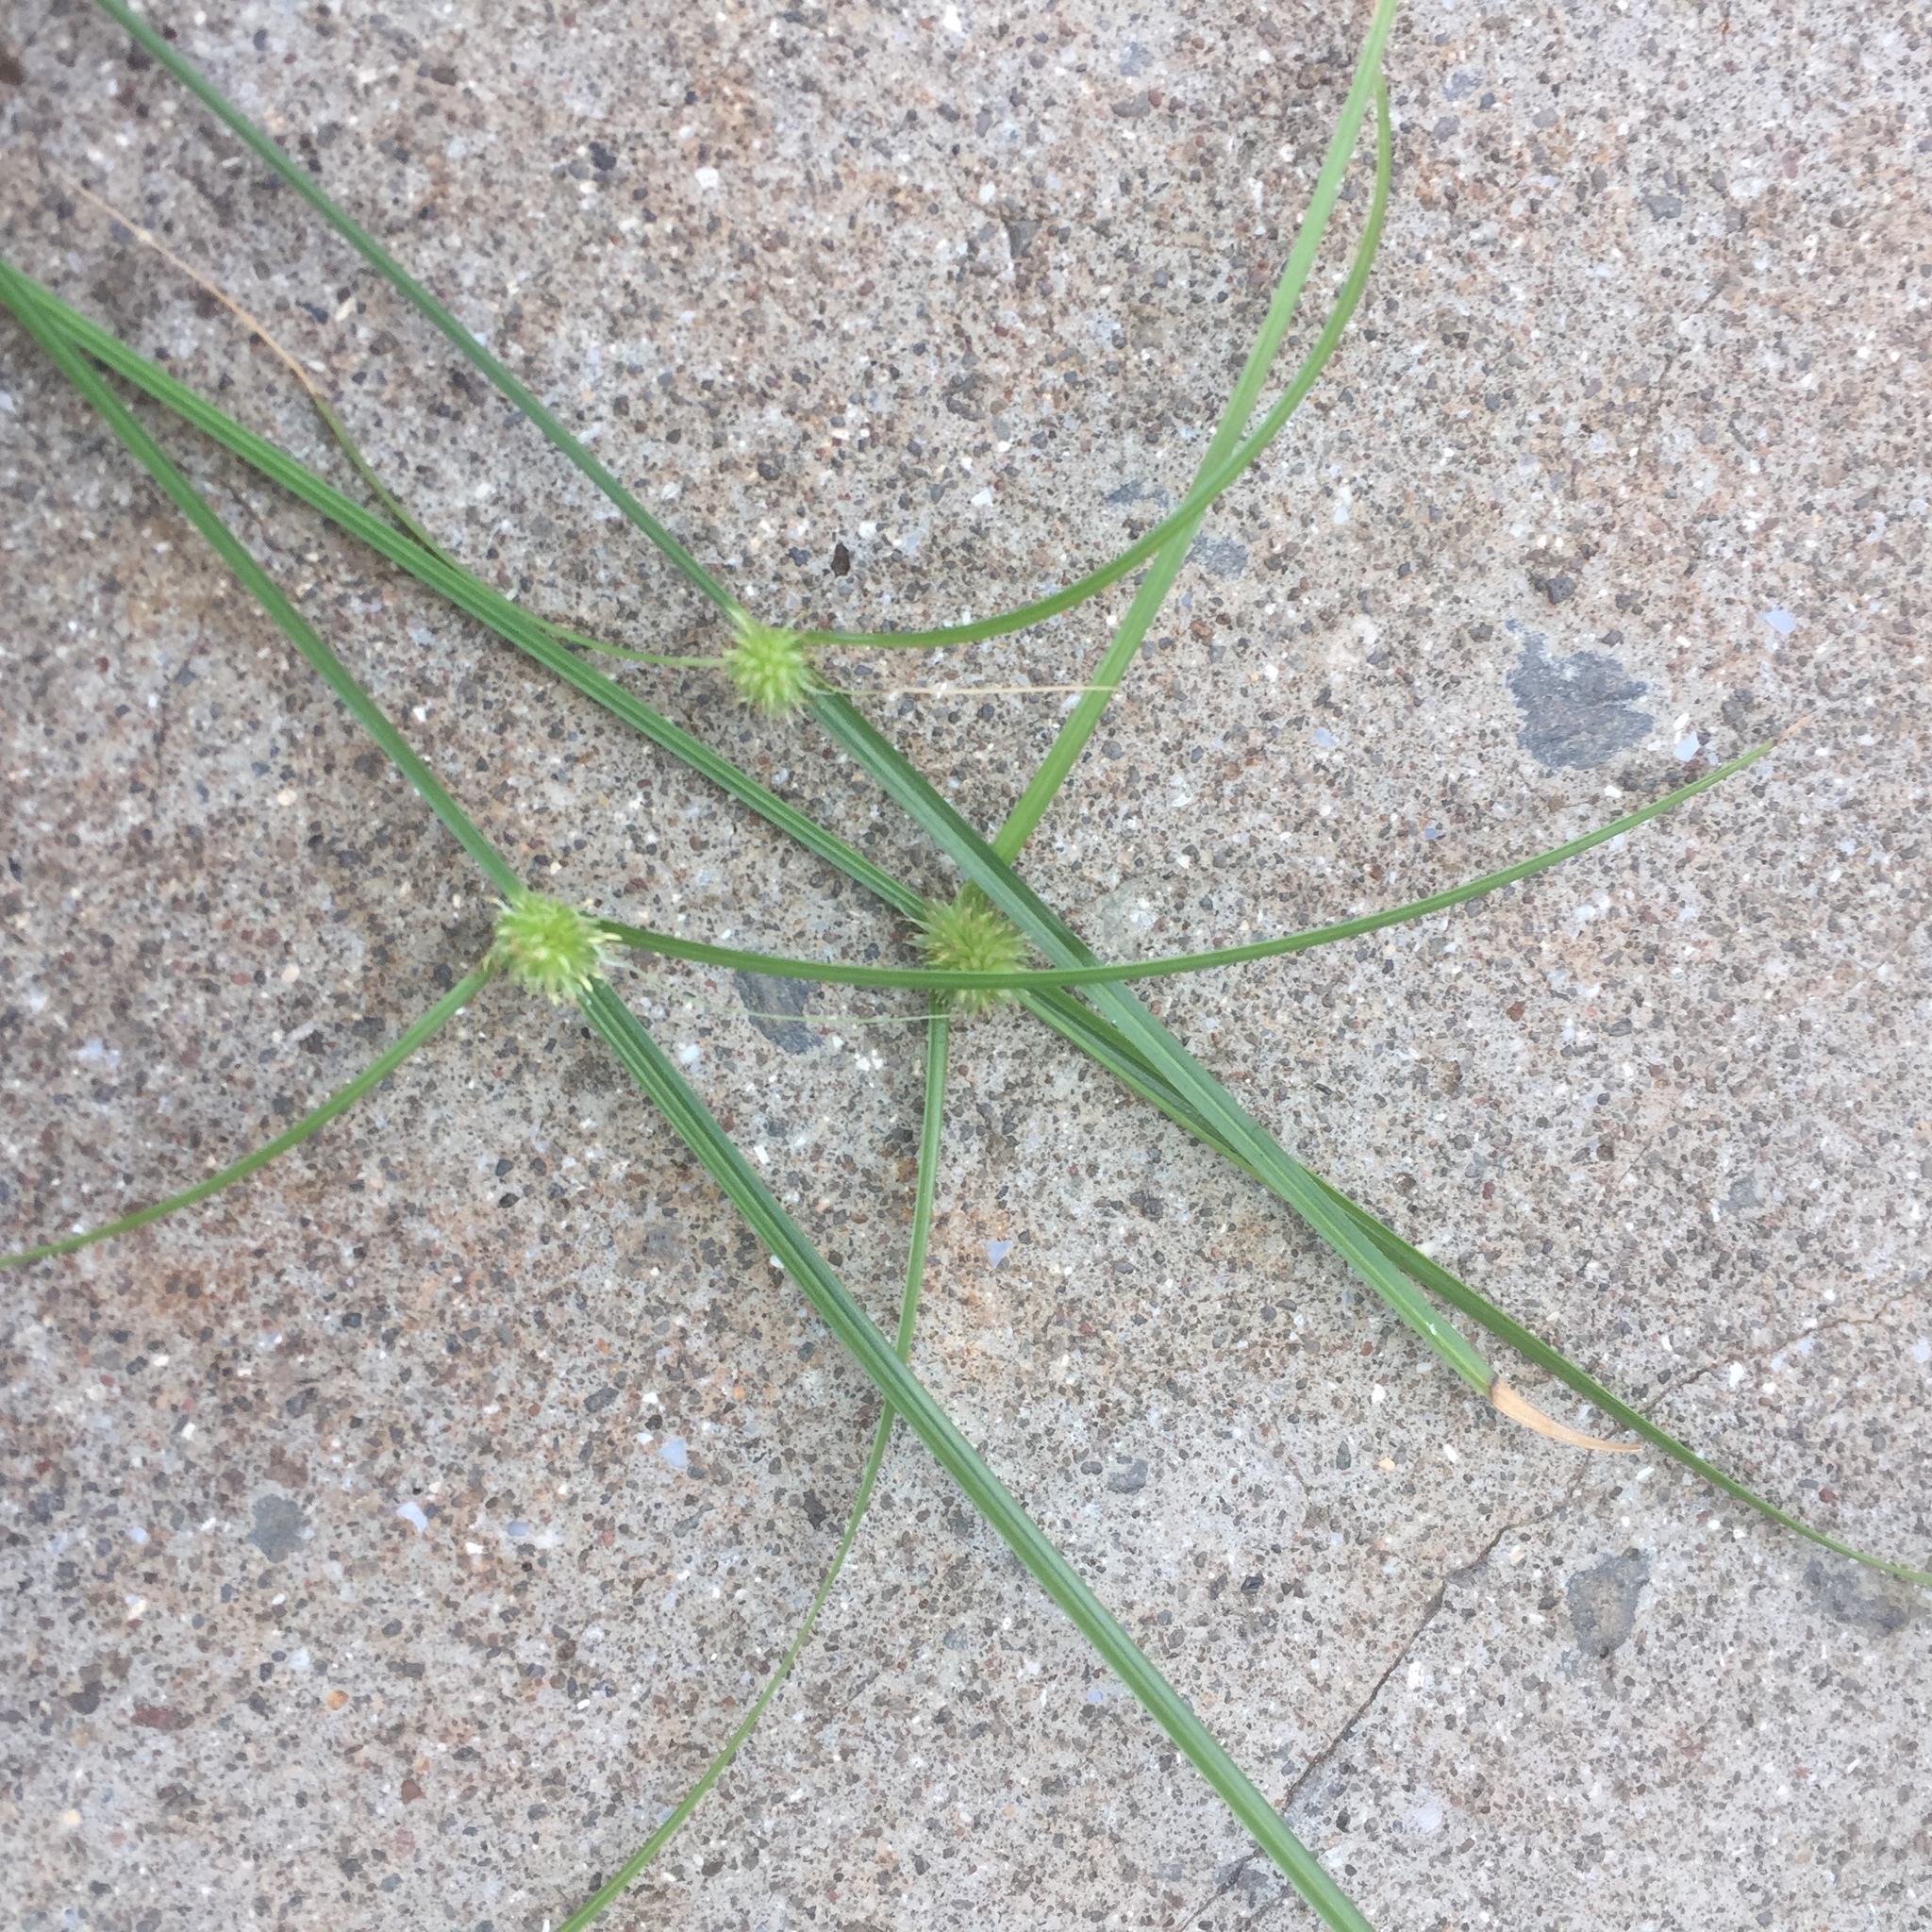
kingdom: Plantae
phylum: Tracheophyta
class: Liliopsida
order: Poales
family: Cyperaceae
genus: Cyperus
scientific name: Cyperus brevifolius
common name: Globe kyllinga
